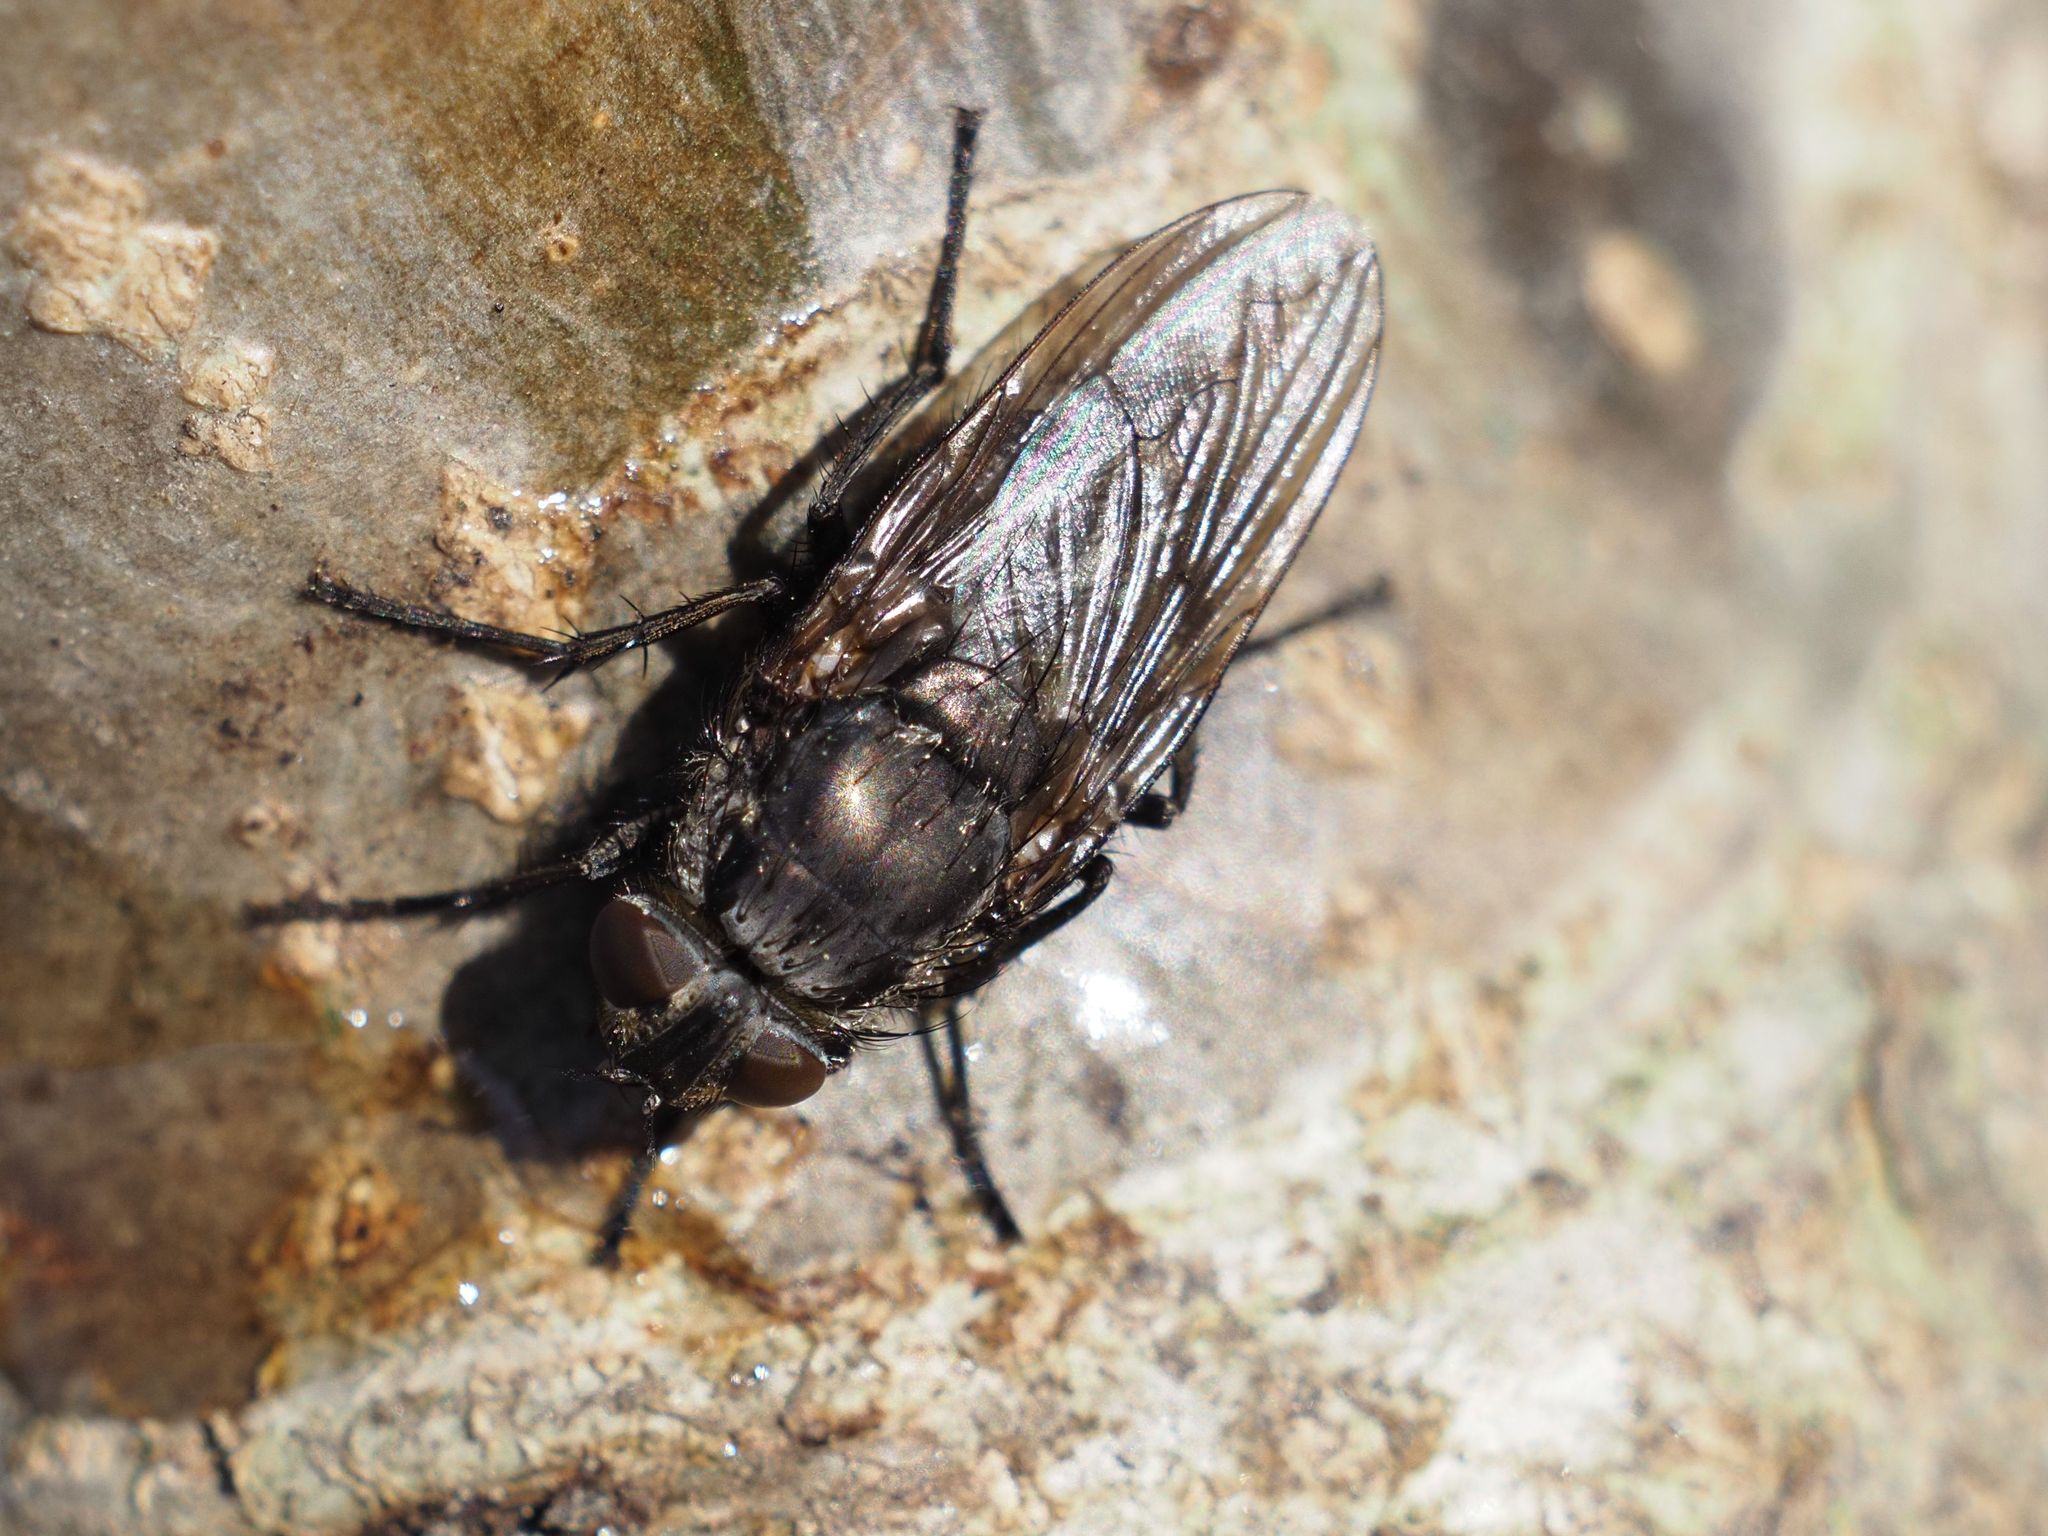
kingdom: Animalia
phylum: Arthropoda
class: Insecta
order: Diptera
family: Polleniidae
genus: Pollenia
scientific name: Pollenia vagabunda
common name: Vagabund cluster fly
